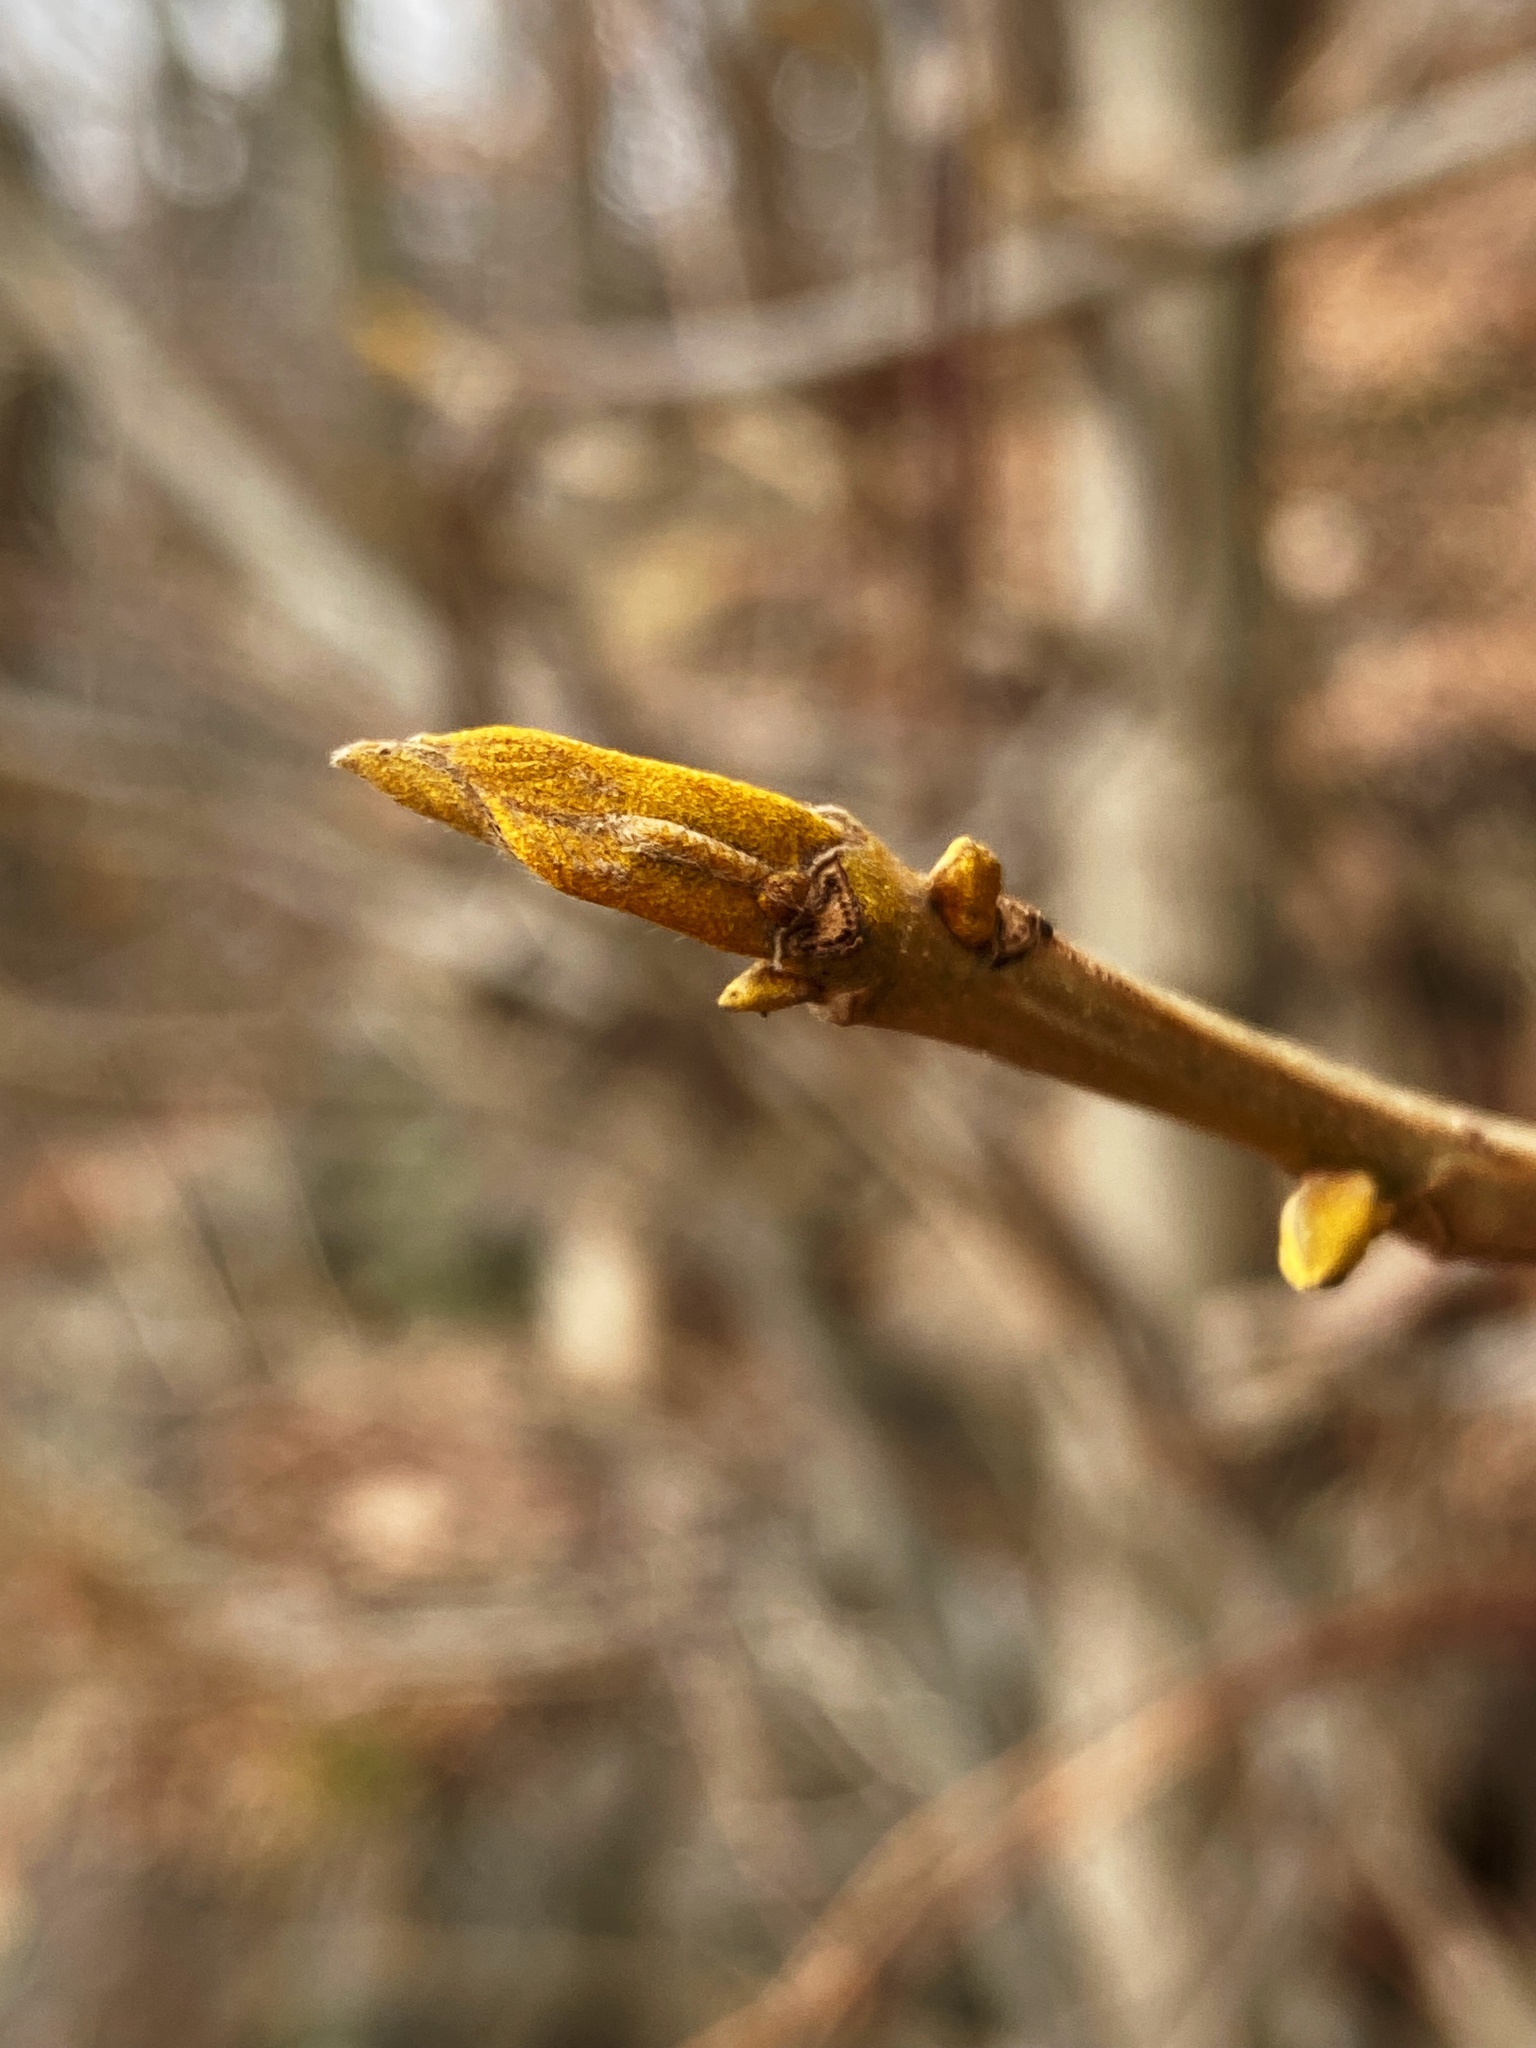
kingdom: Plantae
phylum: Tracheophyta
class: Magnoliopsida
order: Fagales
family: Juglandaceae
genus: Carya
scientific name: Carya cordiformis
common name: Bitternut hickory
